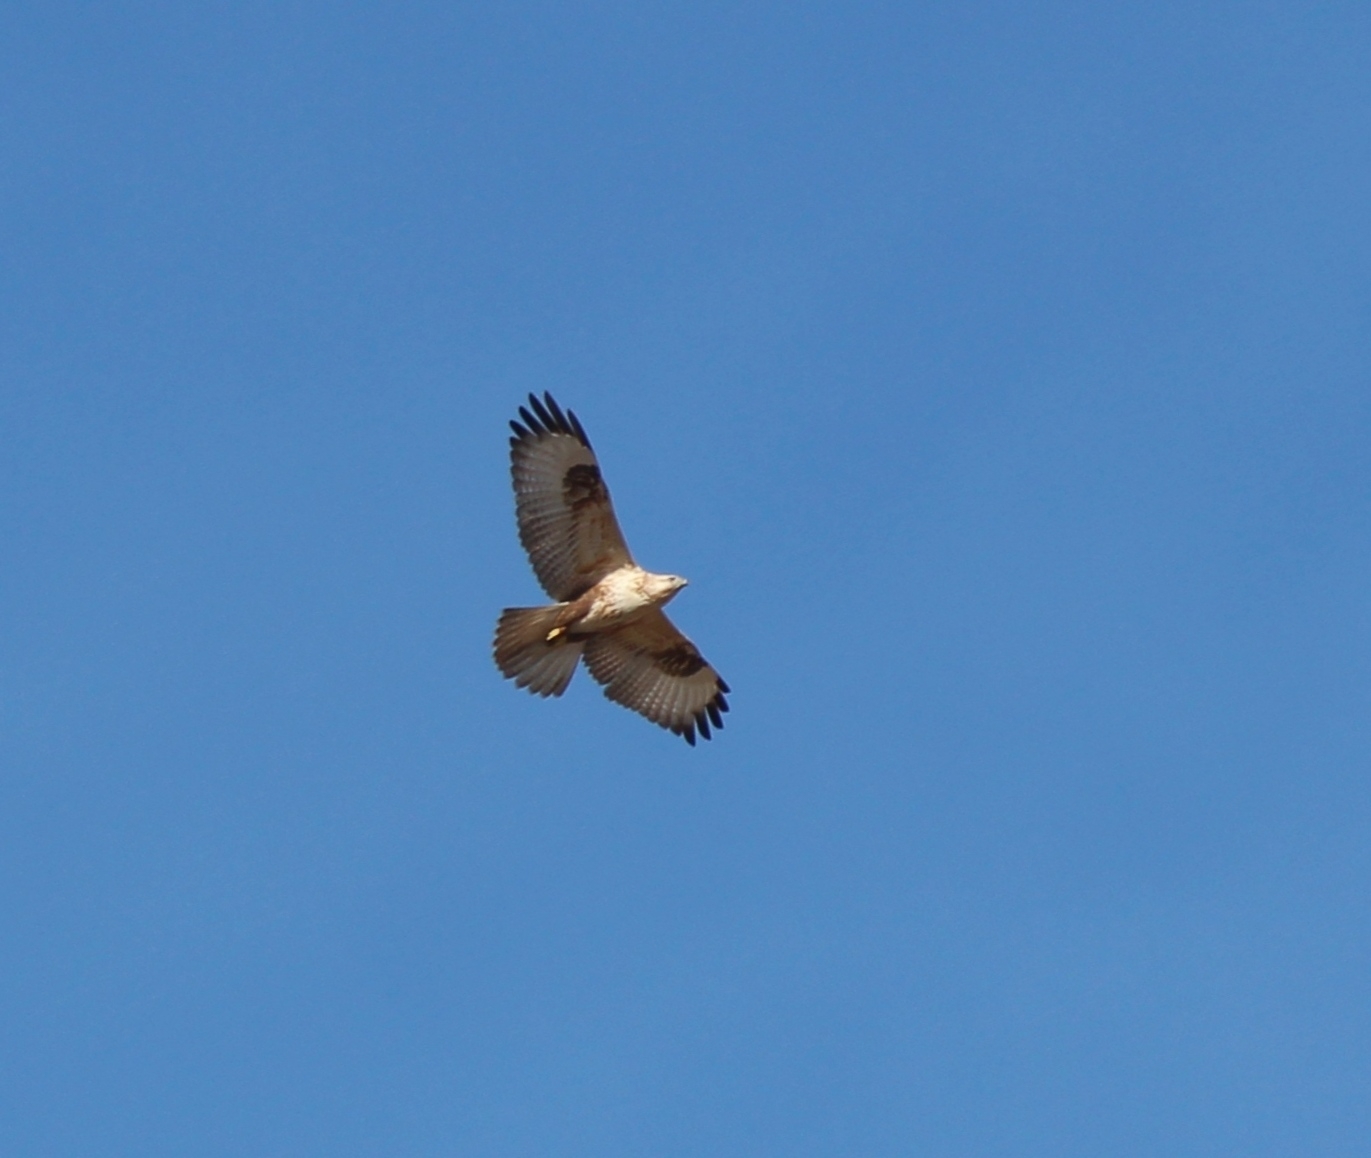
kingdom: Animalia
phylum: Chordata
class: Aves
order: Accipitriformes
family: Accipitridae
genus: Buteo
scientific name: Buteo hemilasius
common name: Upland buzzard
